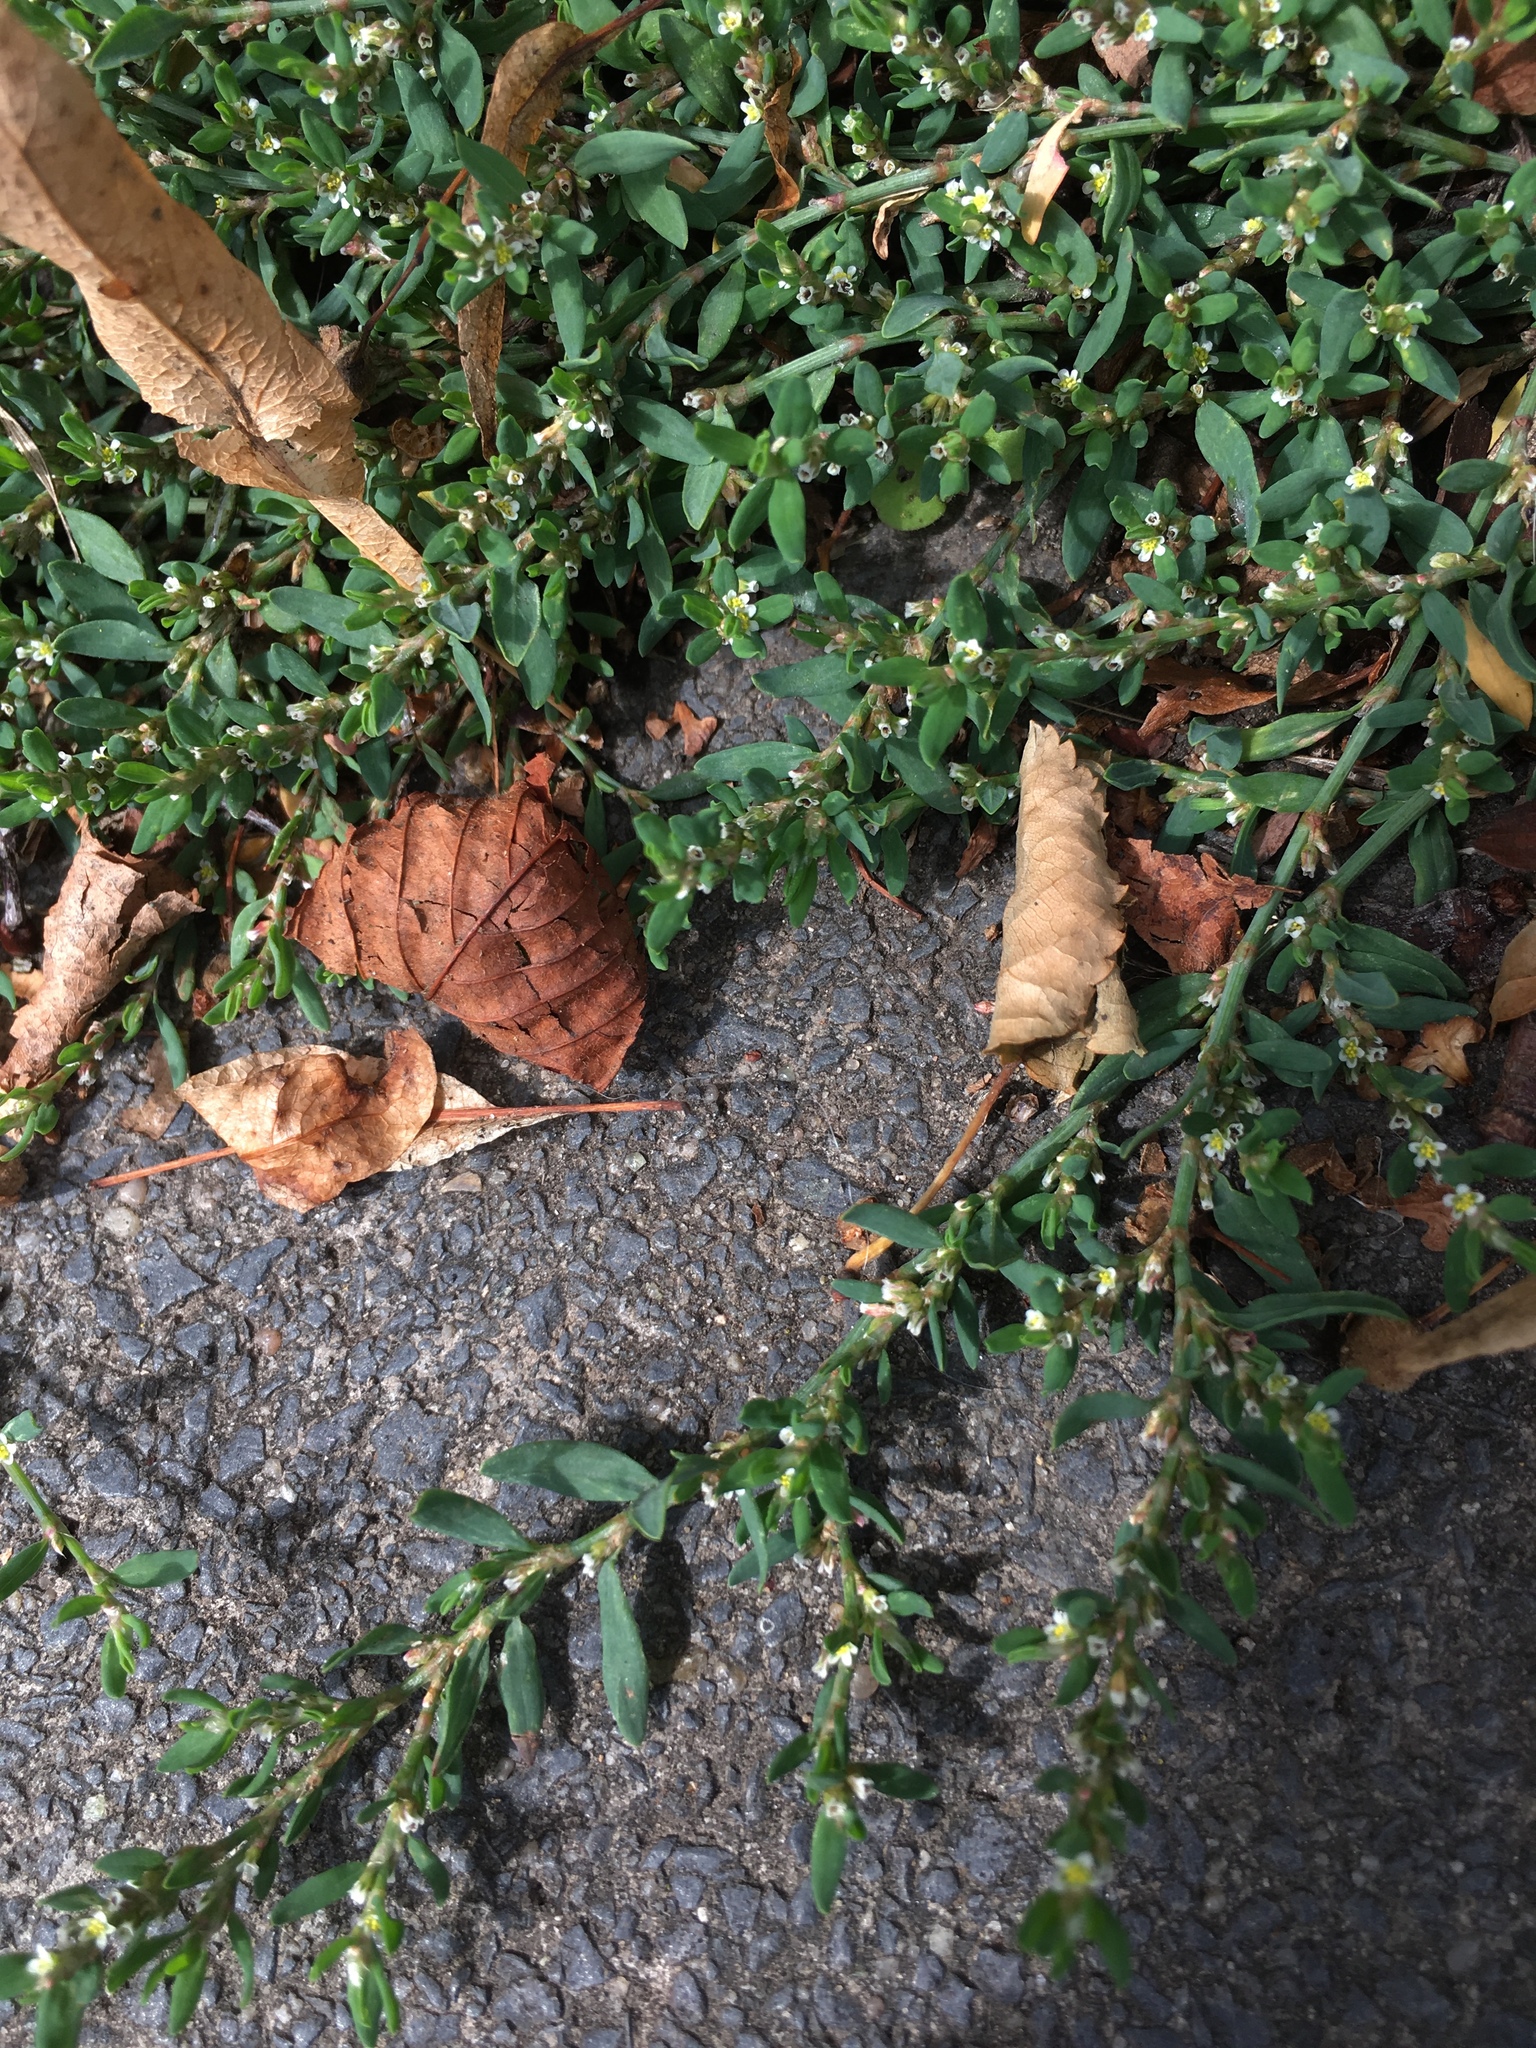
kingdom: Plantae
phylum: Tracheophyta
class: Magnoliopsida
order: Caryophyllales
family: Polygonaceae
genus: Polygonum
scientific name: Polygonum aviculare
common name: Prostrate knotweed
